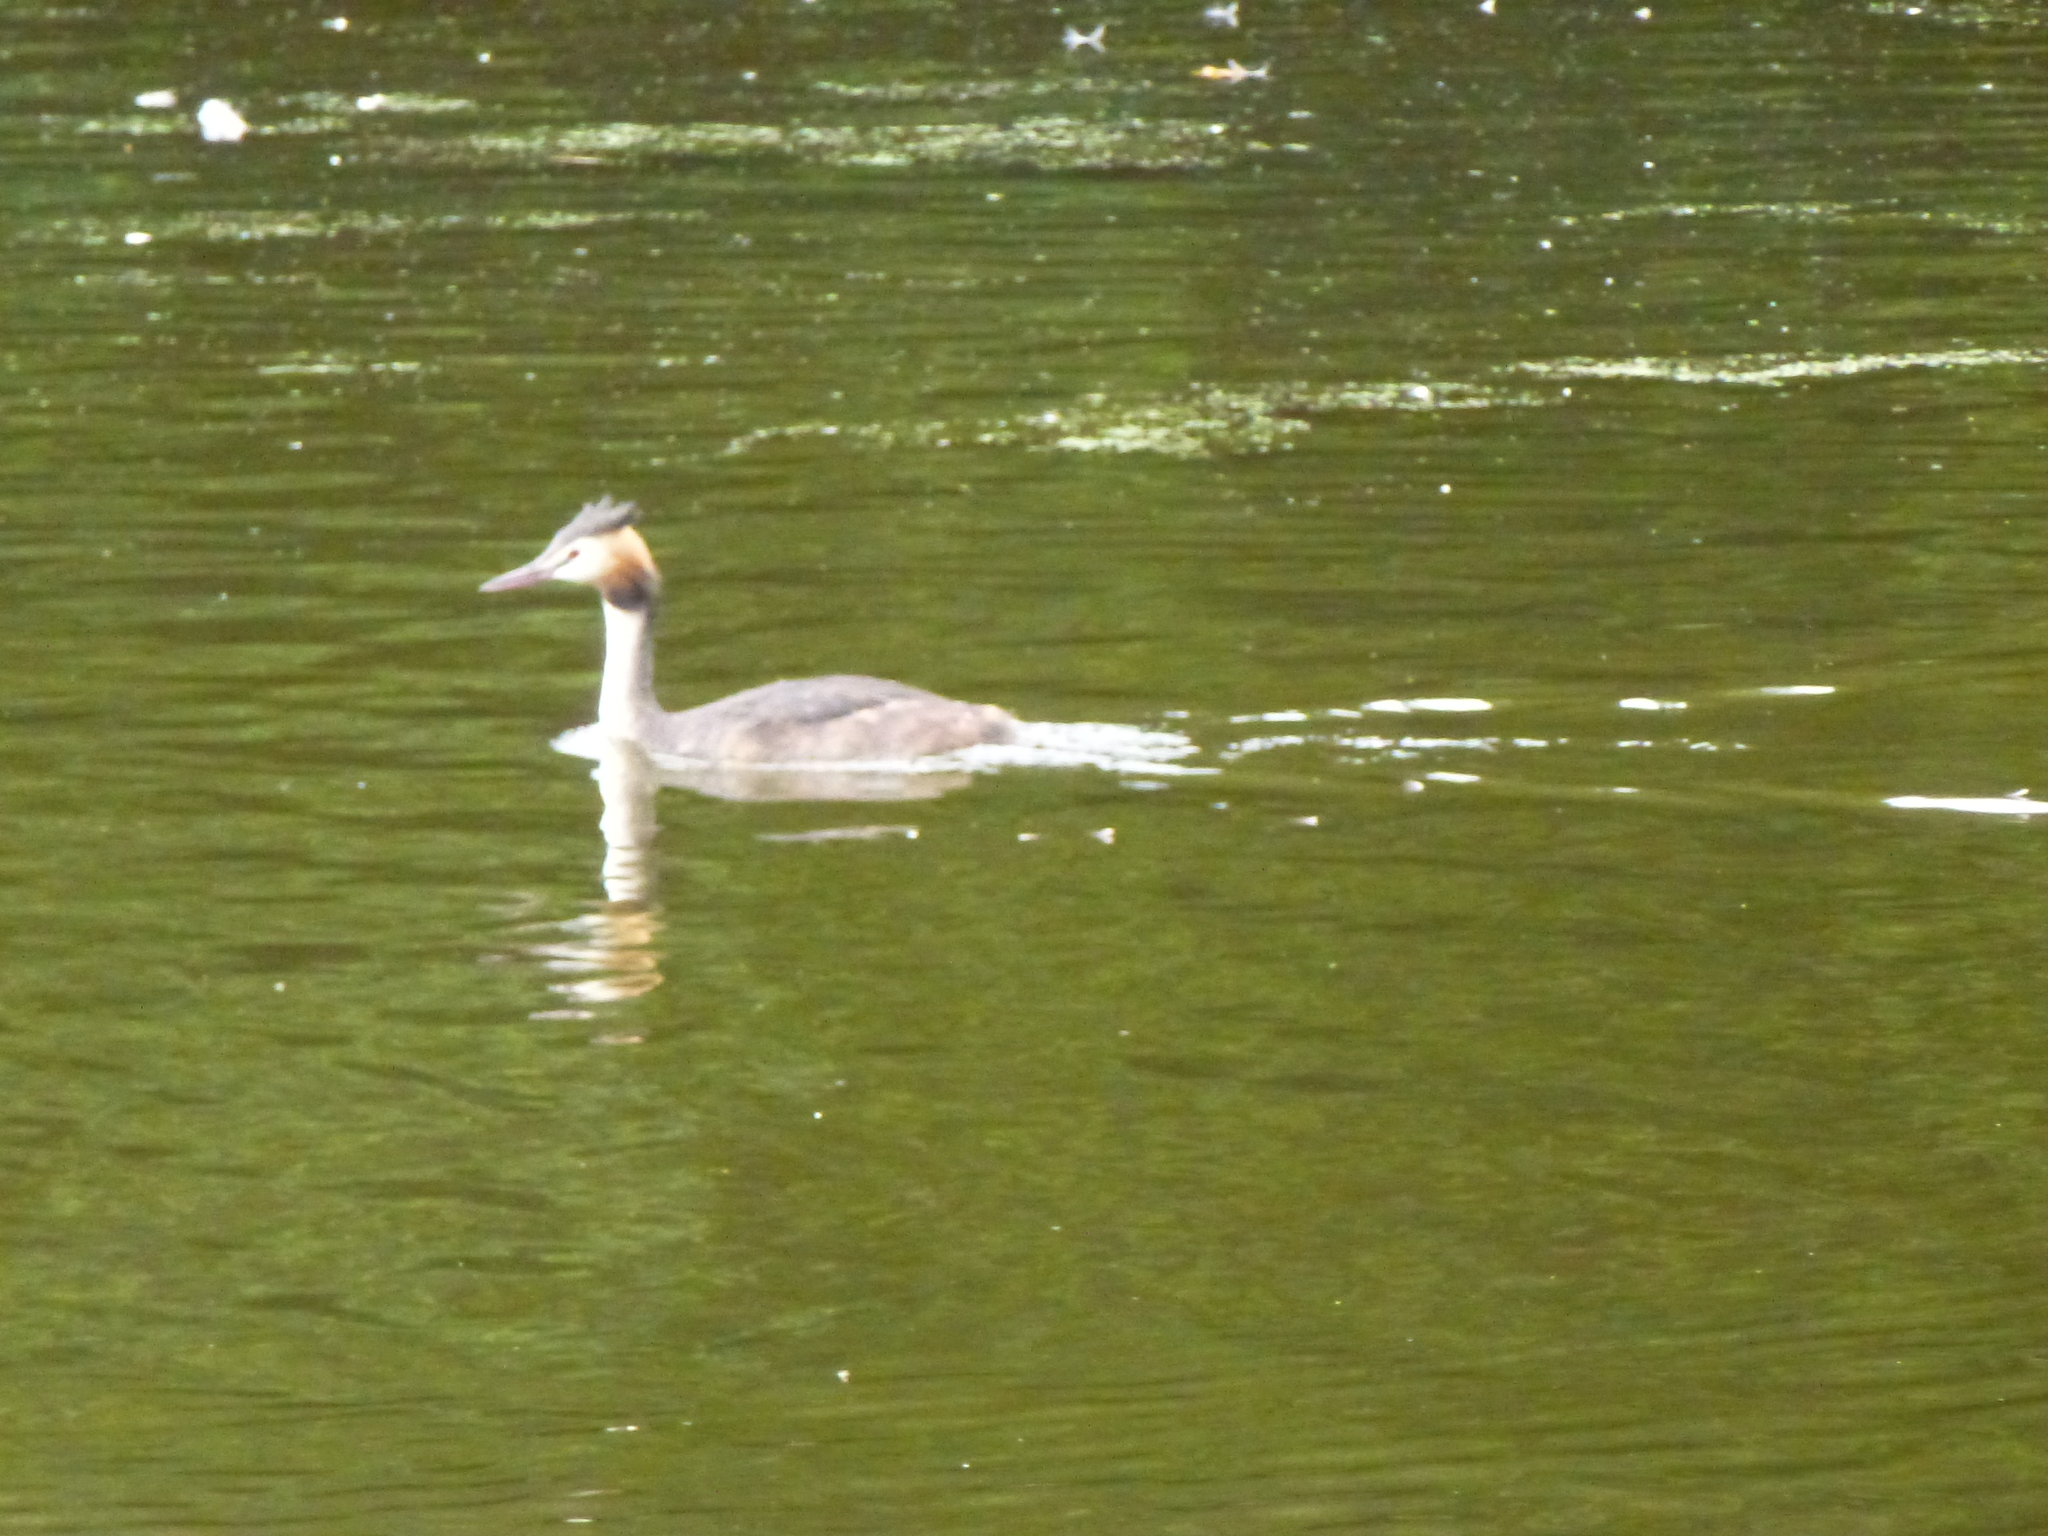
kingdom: Animalia
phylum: Chordata
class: Aves
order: Podicipediformes
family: Podicipedidae
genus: Podiceps
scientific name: Podiceps cristatus
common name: Great crested grebe
